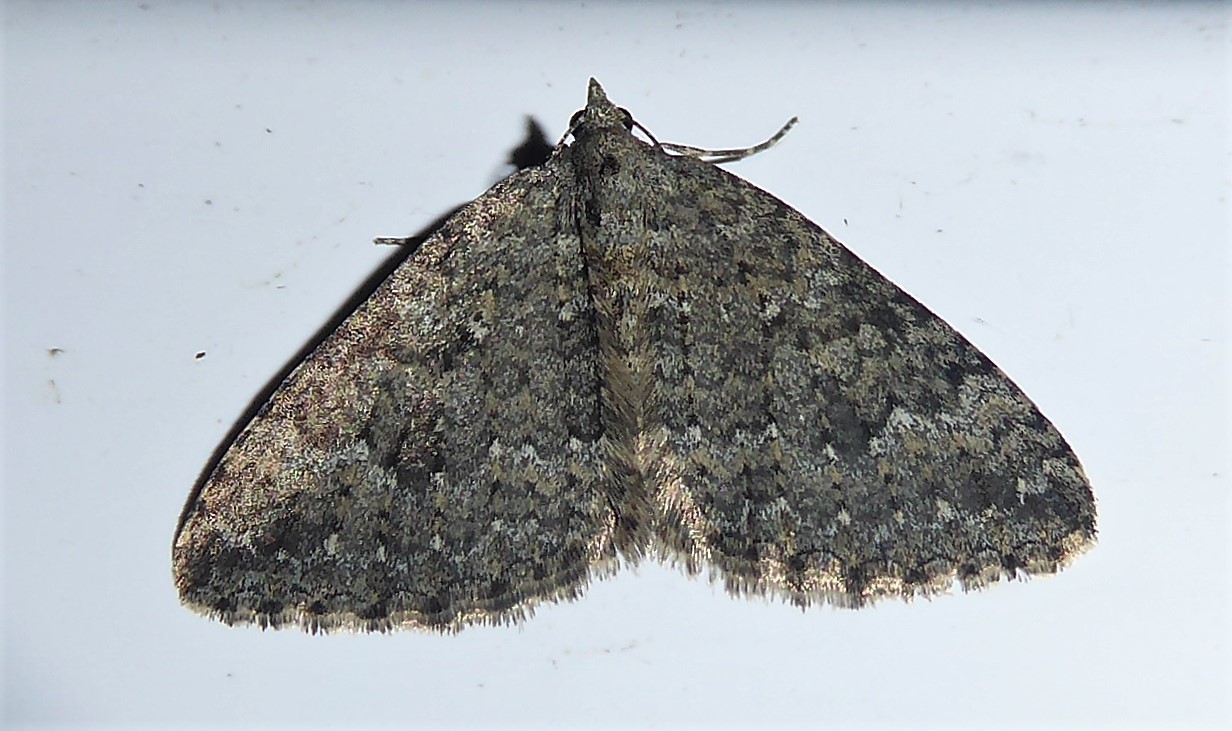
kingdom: Animalia
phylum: Arthropoda
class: Insecta
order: Lepidoptera
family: Geometridae
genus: Helastia
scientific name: Helastia corcularia
